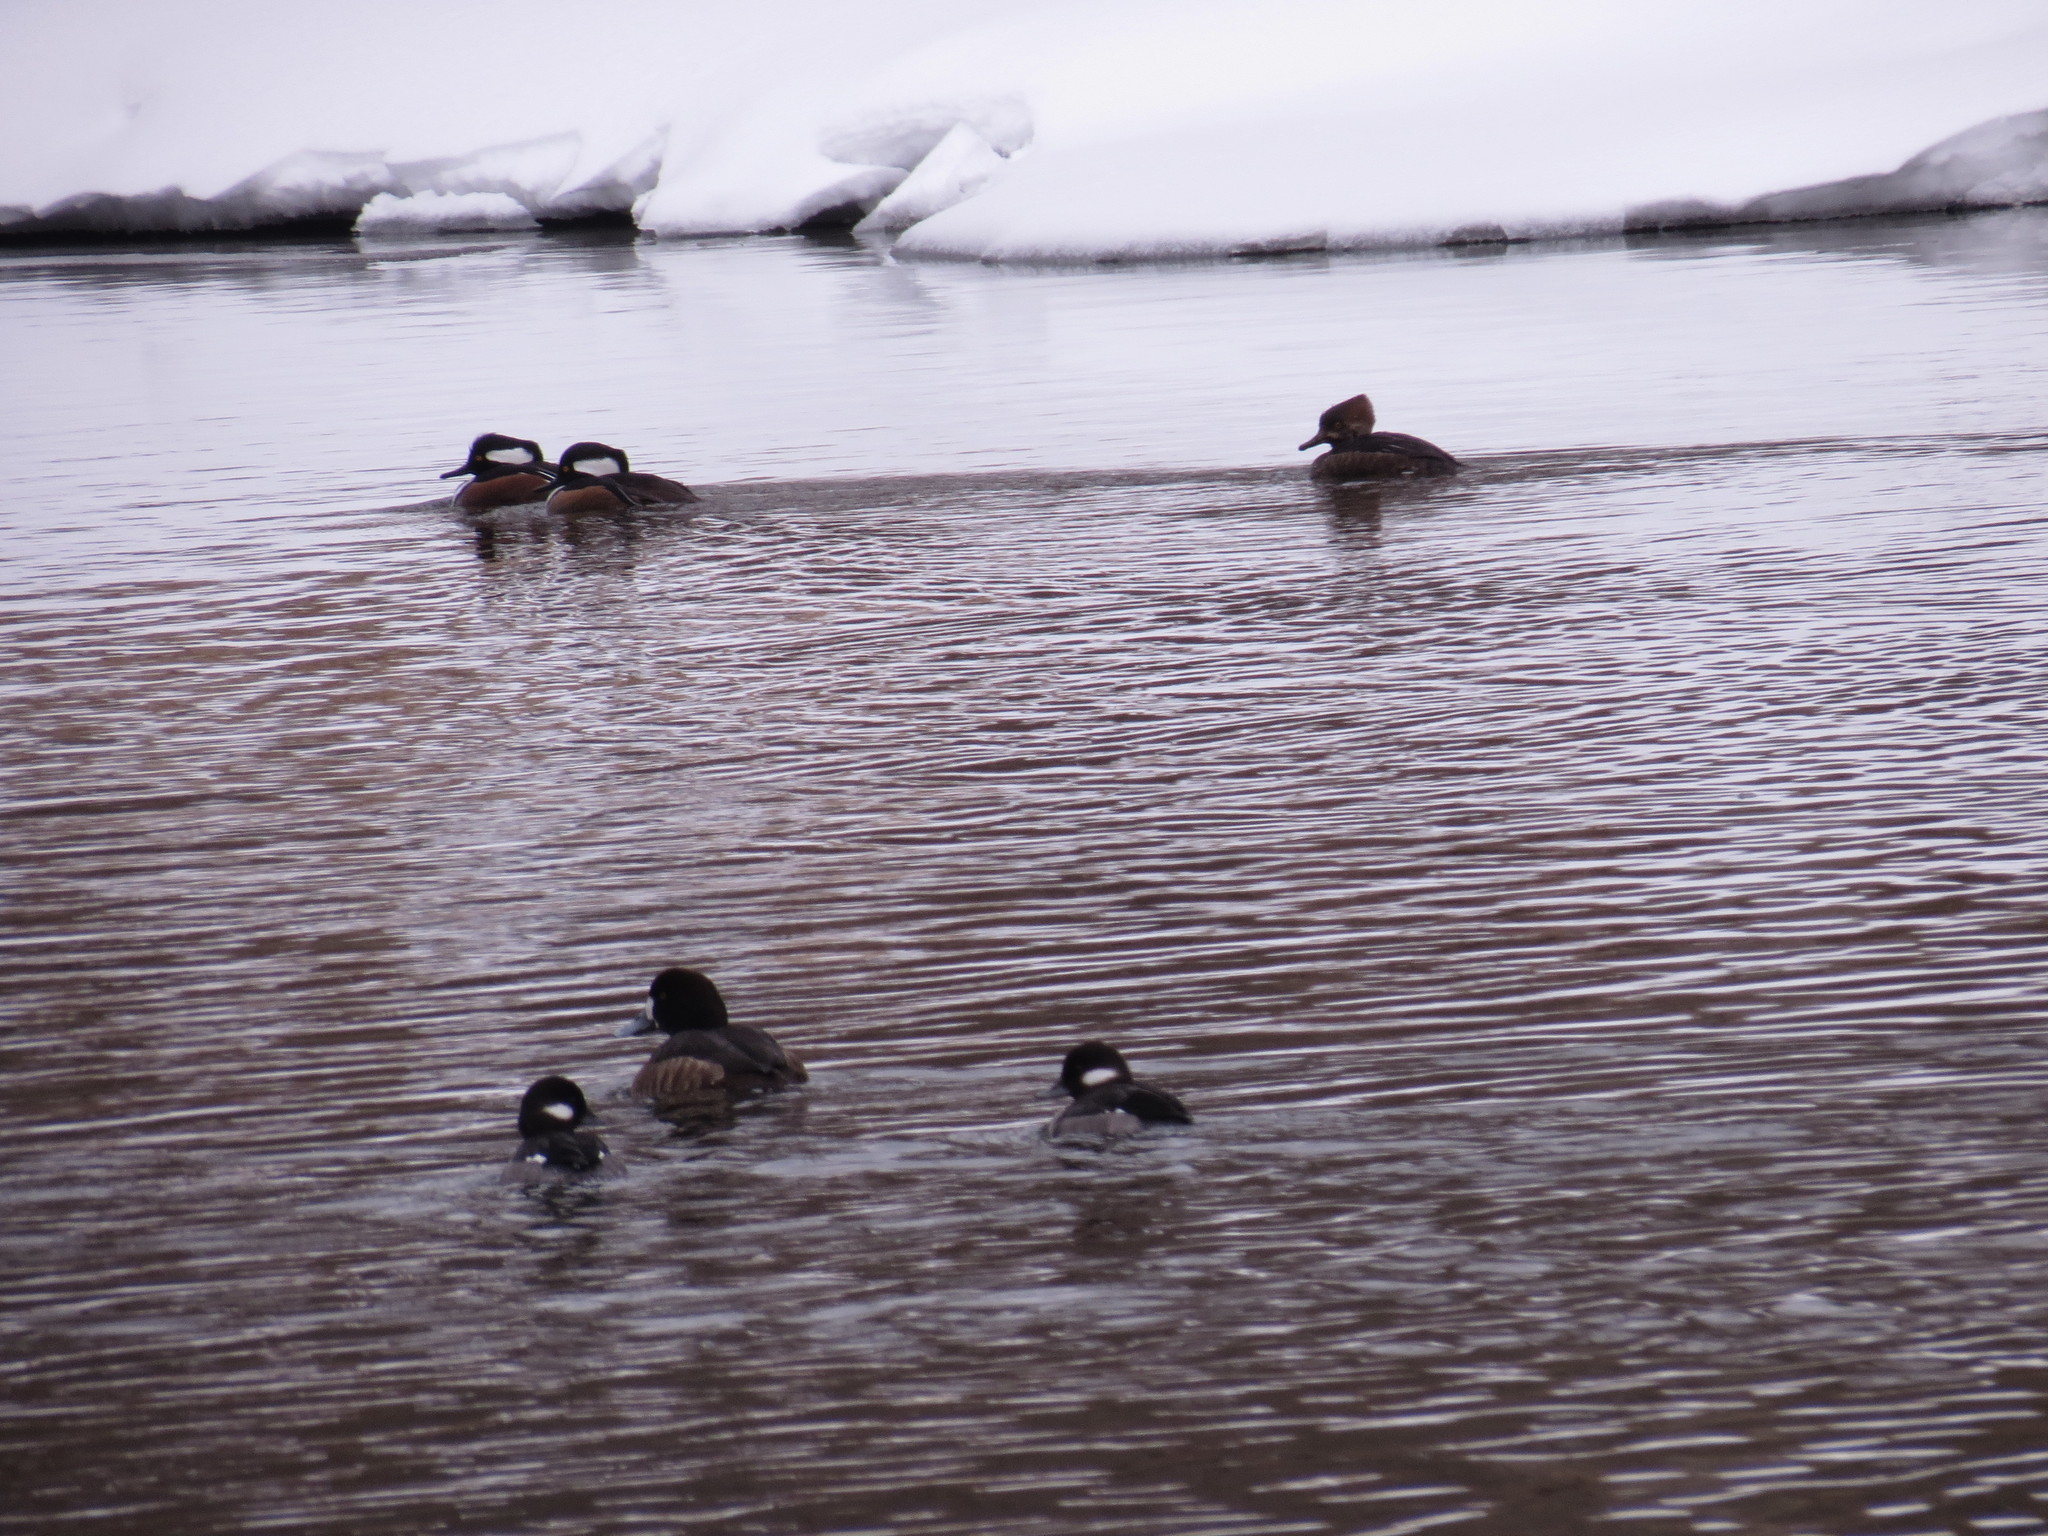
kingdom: Animalia
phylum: Chordata
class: Aves
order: Anseriformes
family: Anatidae
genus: Lophodytes
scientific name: Lophodytes cucullatus
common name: Hooded merganser
